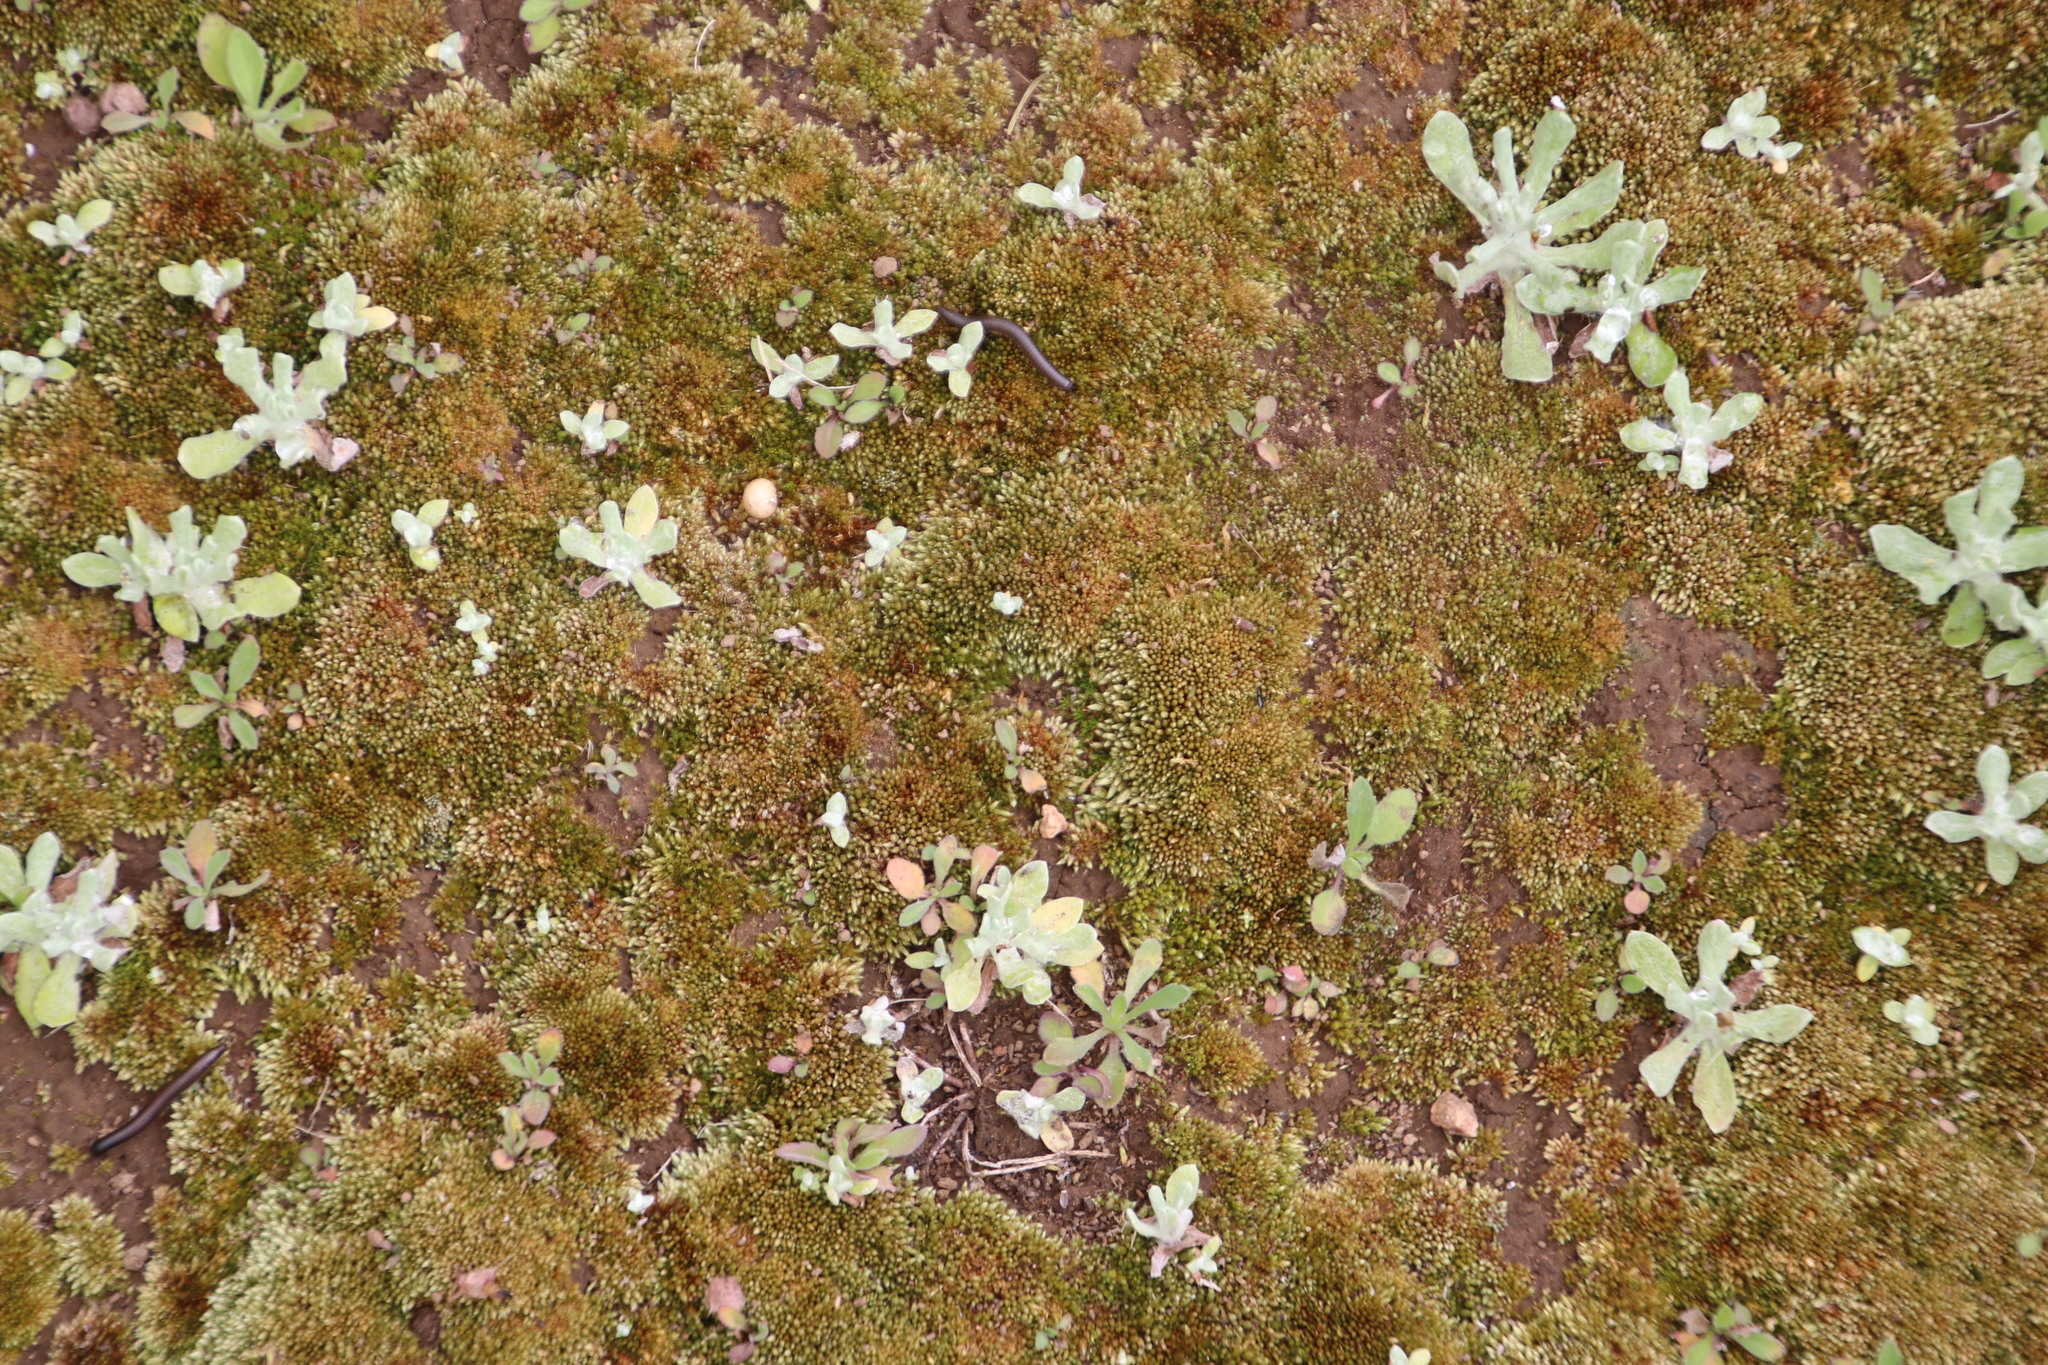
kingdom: Plantae
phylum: Bryophyta
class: Bryopsida
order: Bryales
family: Bryaceae
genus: Bryum
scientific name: Bryum argenteum
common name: Silver-moss
